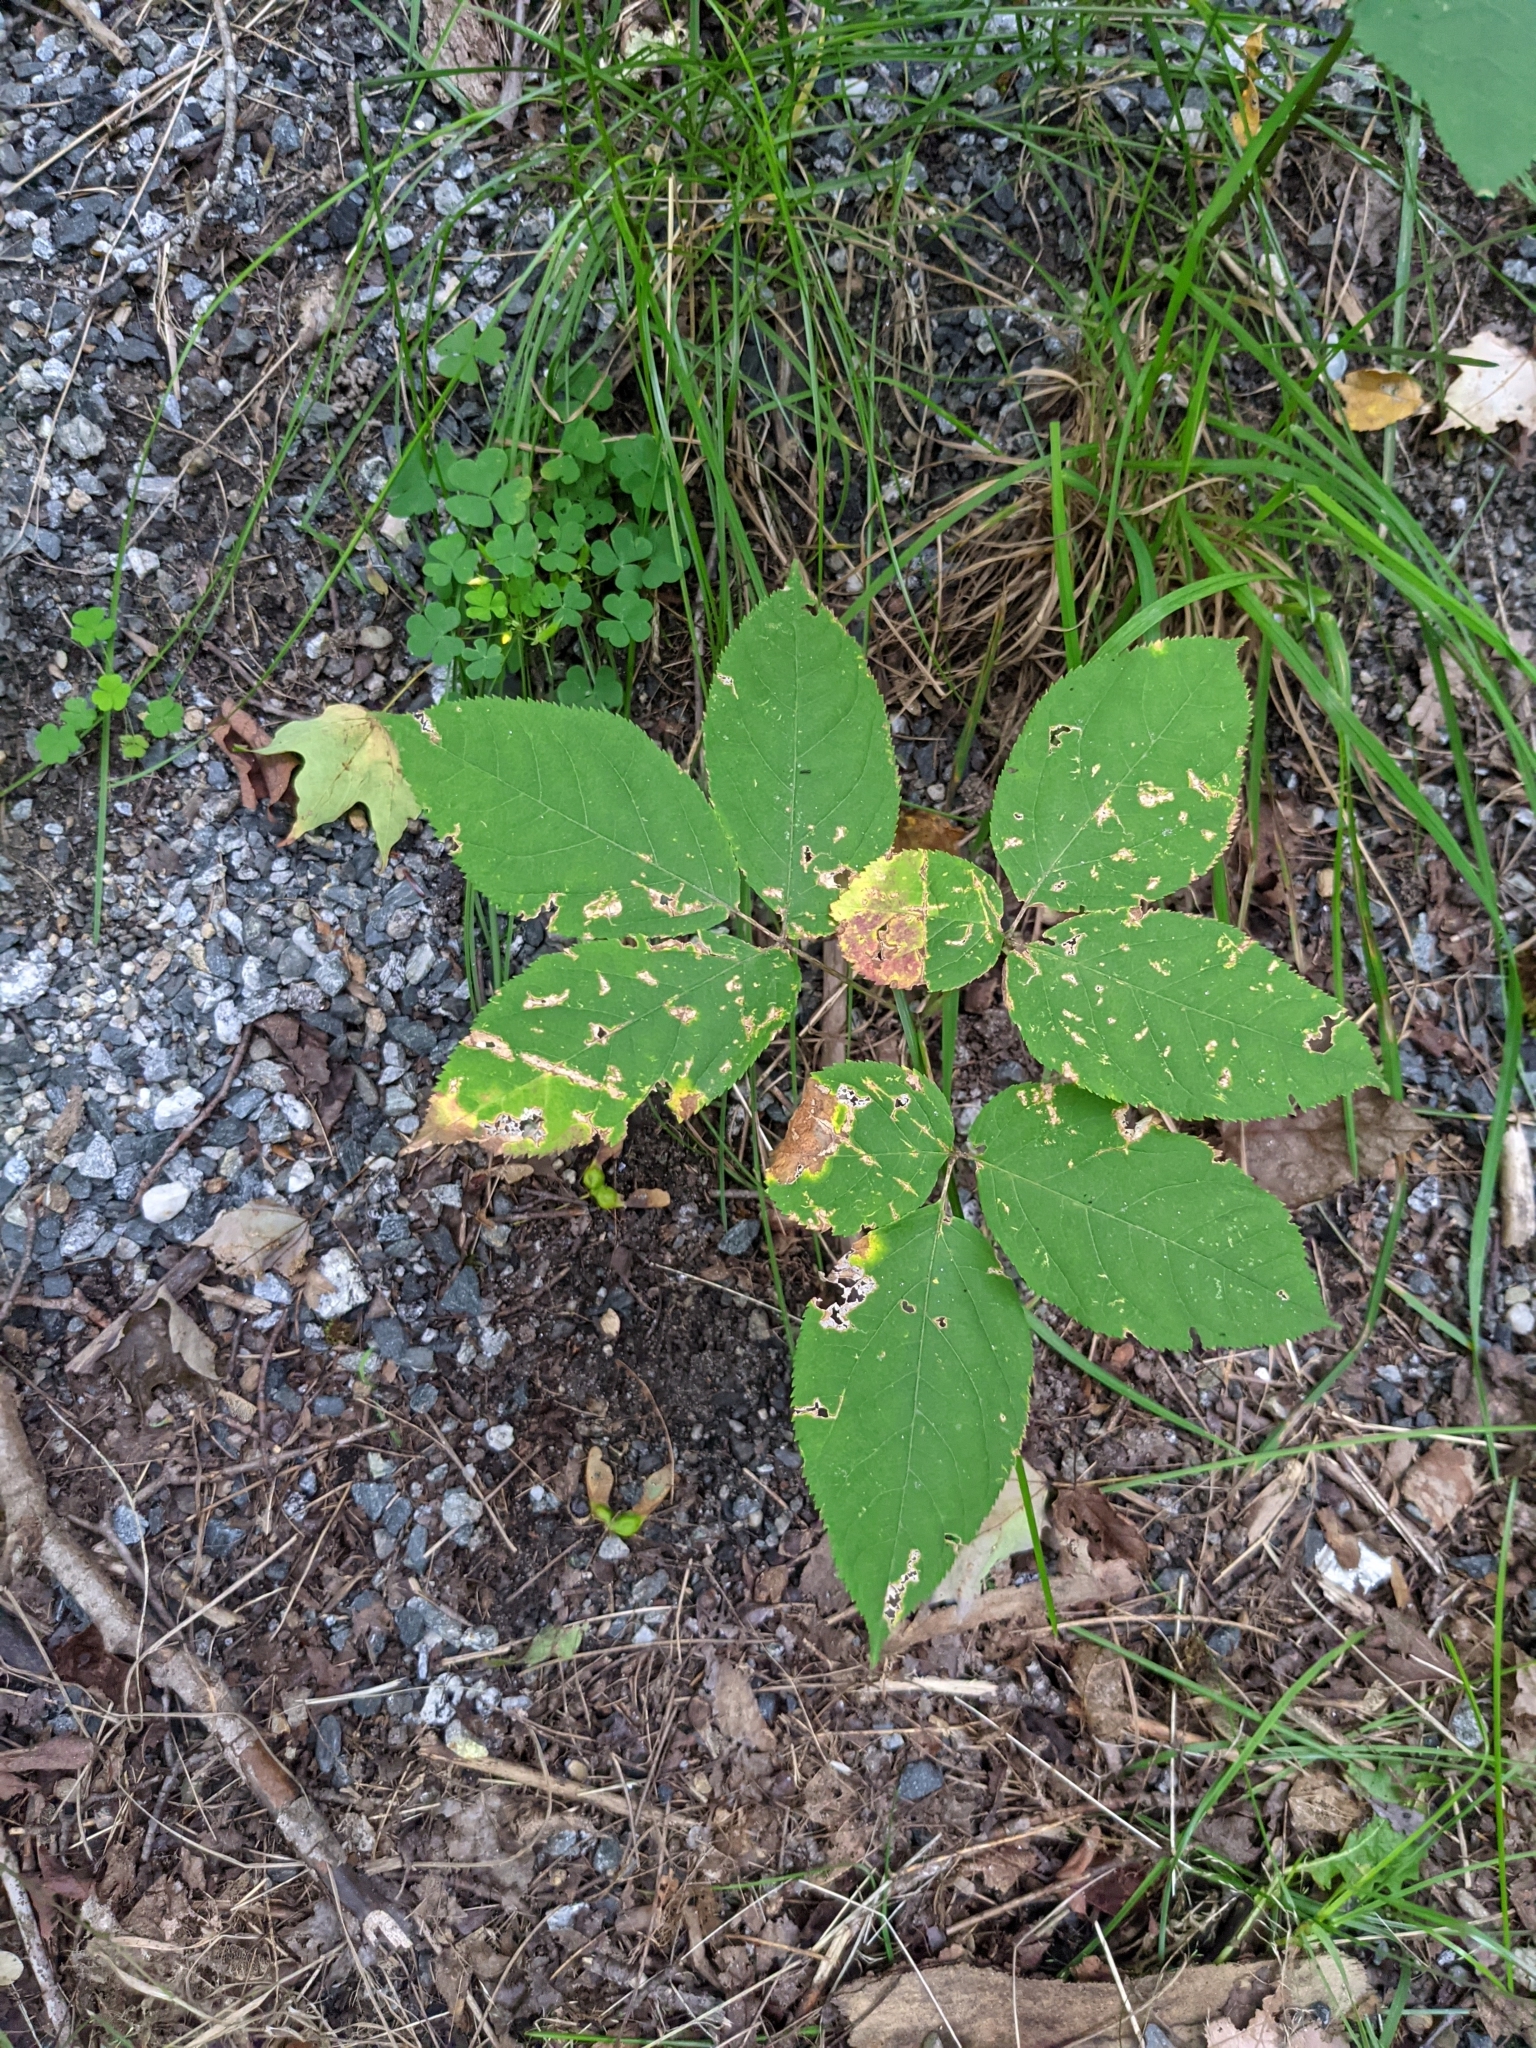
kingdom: Plantae
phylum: Tracheophyta
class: Magnoliopsida
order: Apiales
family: Araliaceae
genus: Aralia
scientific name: Aralia nudicaulis
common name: Wild sarsaparilla
